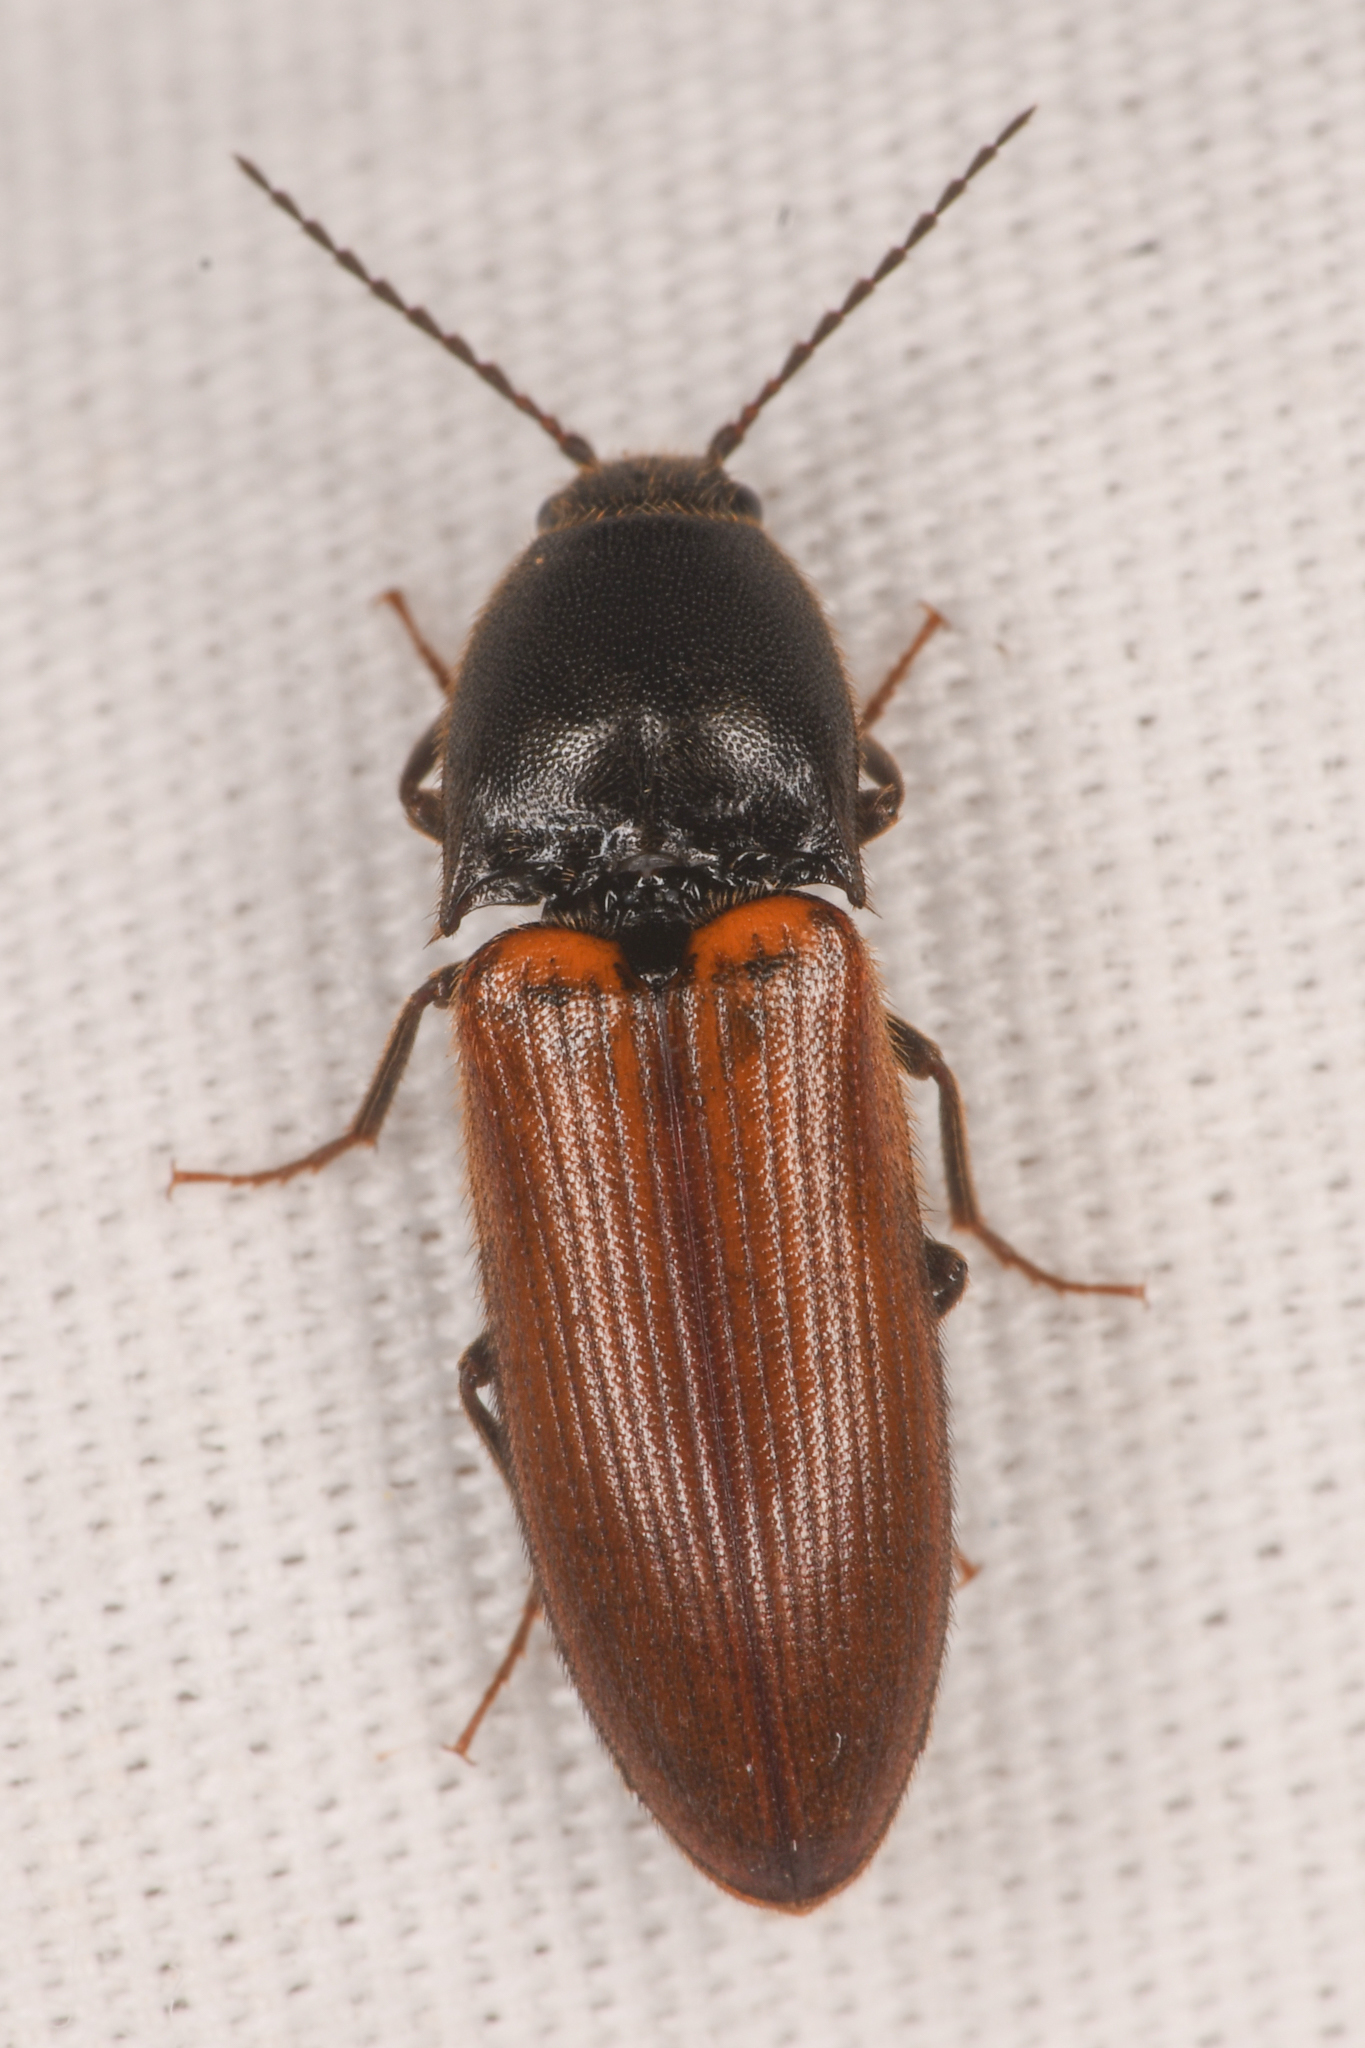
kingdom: Animalia
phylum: Arthropoda
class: Insecta
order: Coleoptera
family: Elateridae
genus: Ampedus
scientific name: Ampedus phoenicopterus
